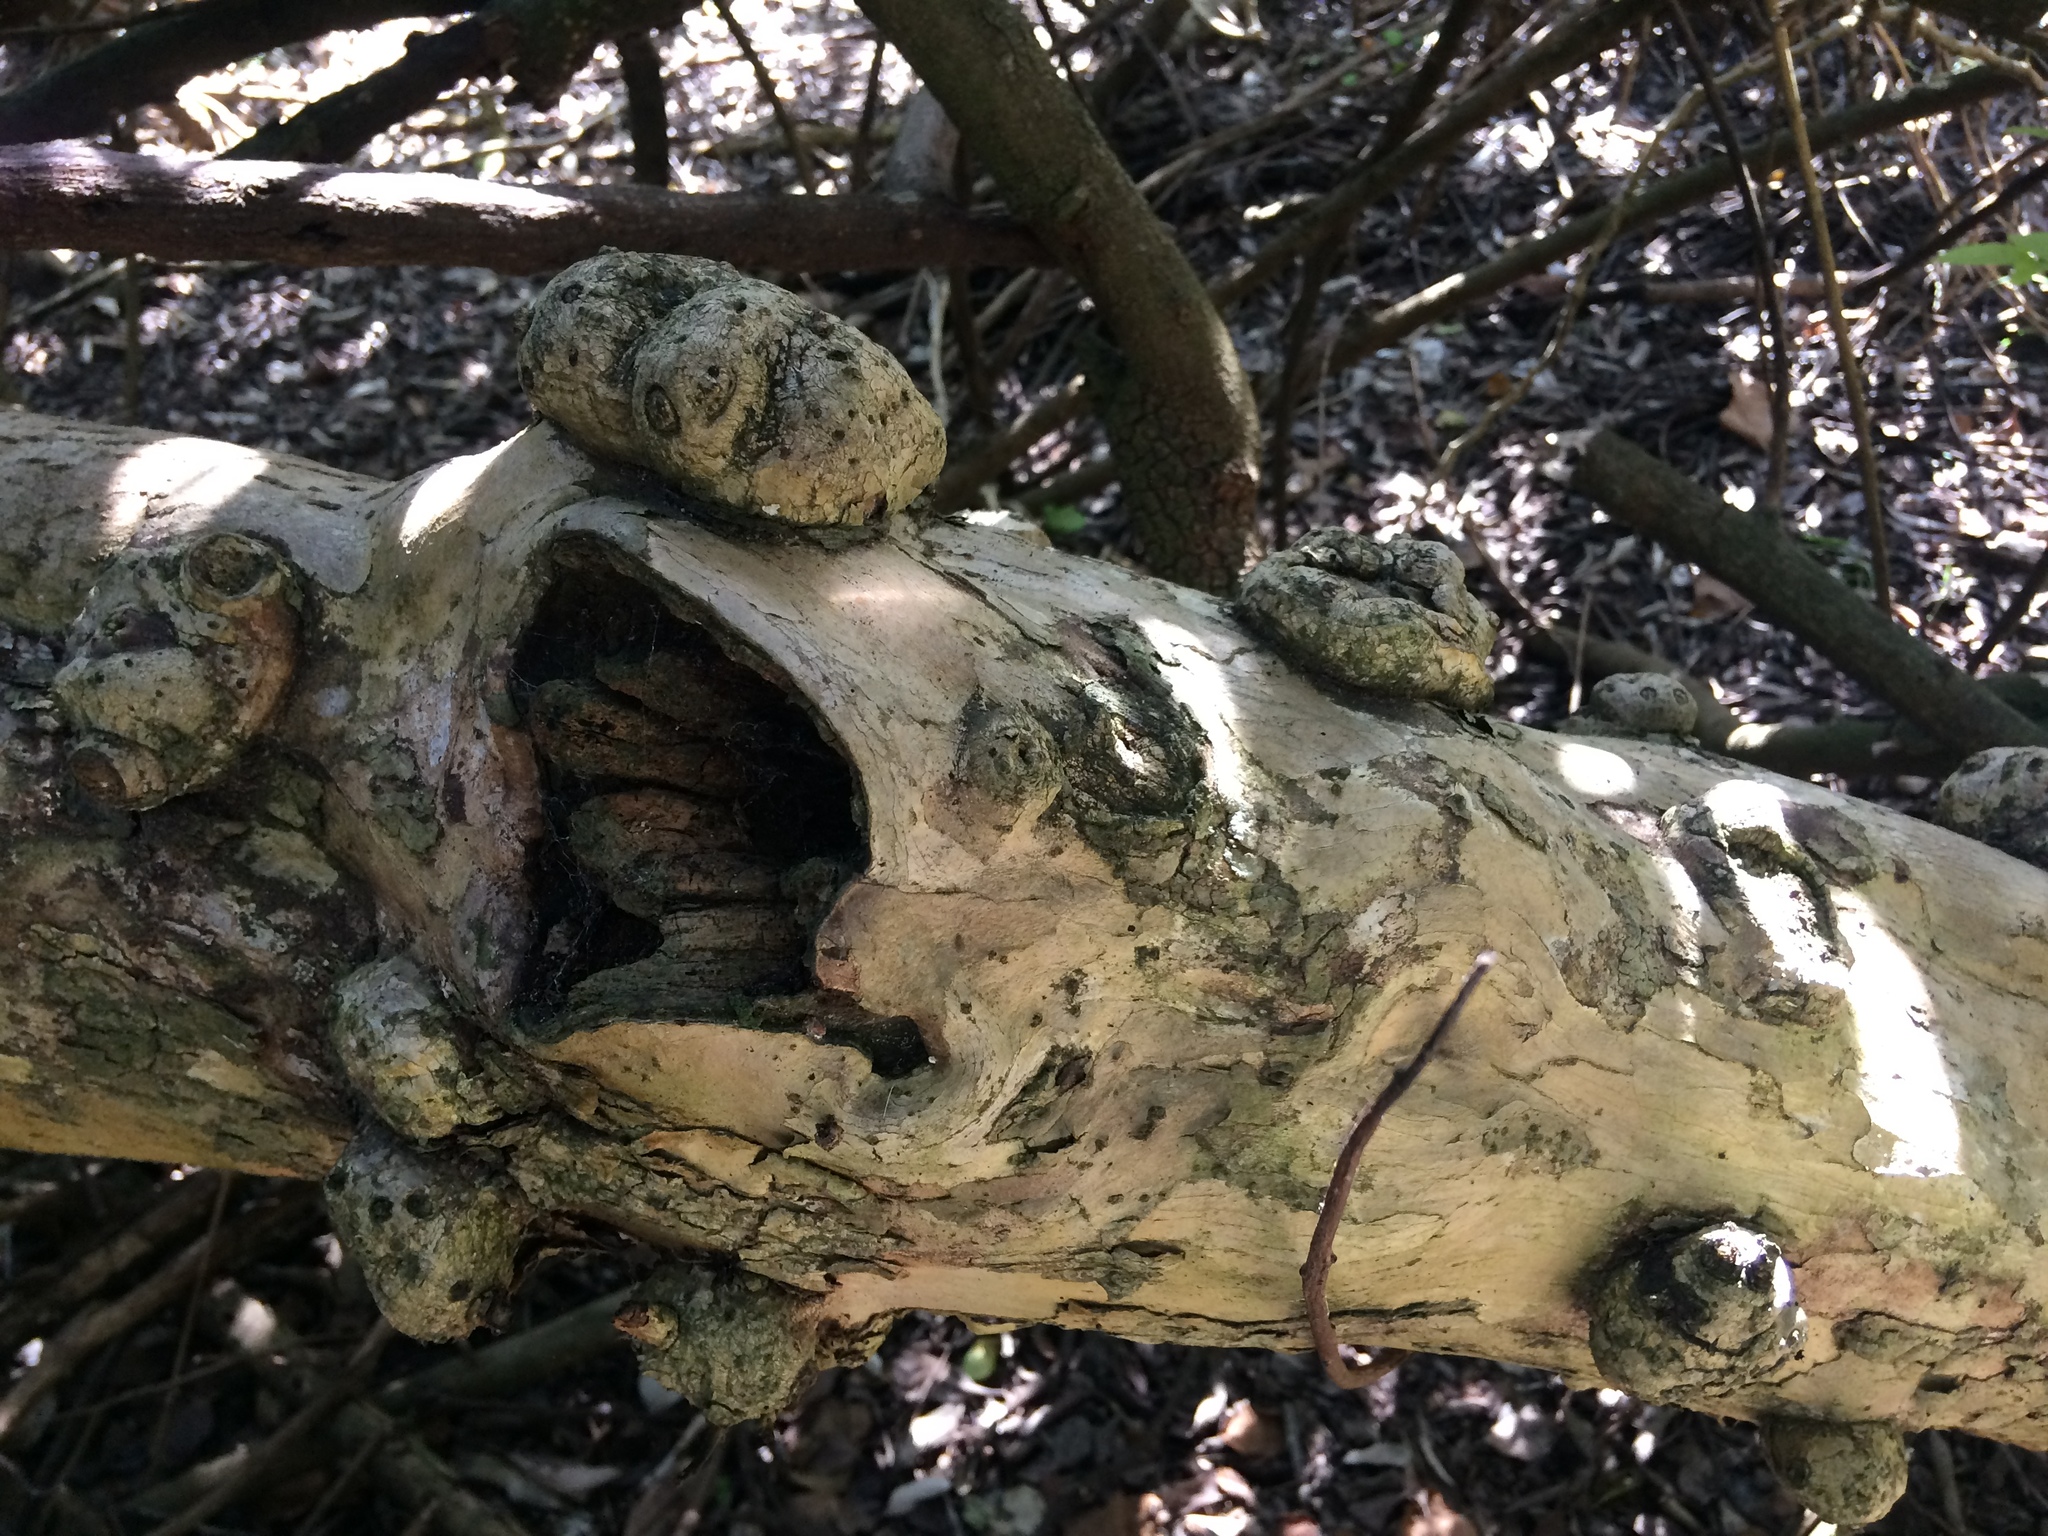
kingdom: Plantae
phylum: Tracheophyta
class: Magnoliopsida
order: Boraginales
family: Cordiaceae
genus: Cordia
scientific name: Cordia caffra
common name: Septee tree
